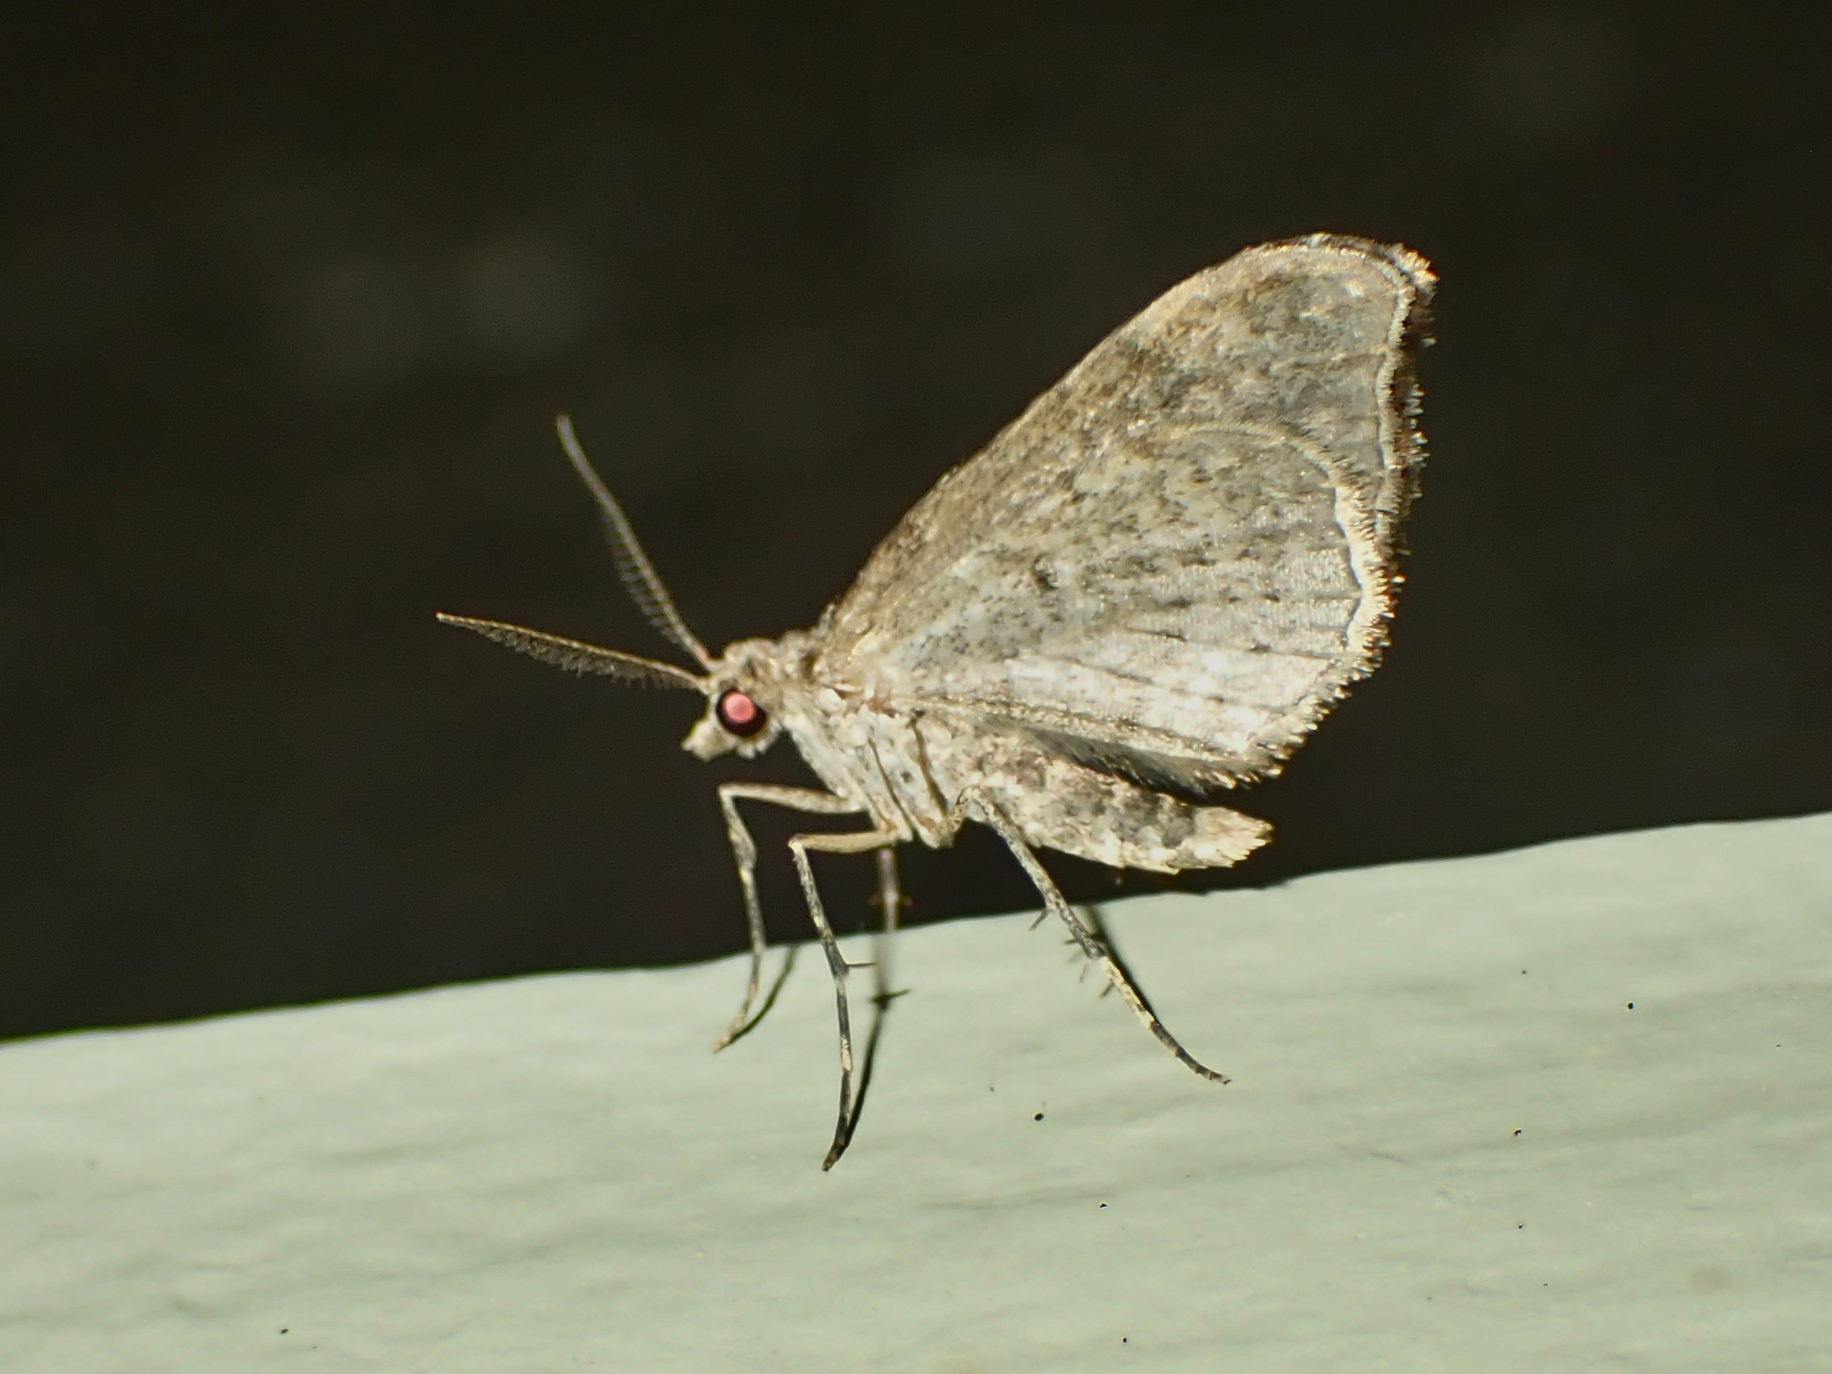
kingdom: Animalia
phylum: Arthropoda
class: Insecta
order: Lepidoptera
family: Geometridae
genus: Helastia
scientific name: Helastia cinerearia
